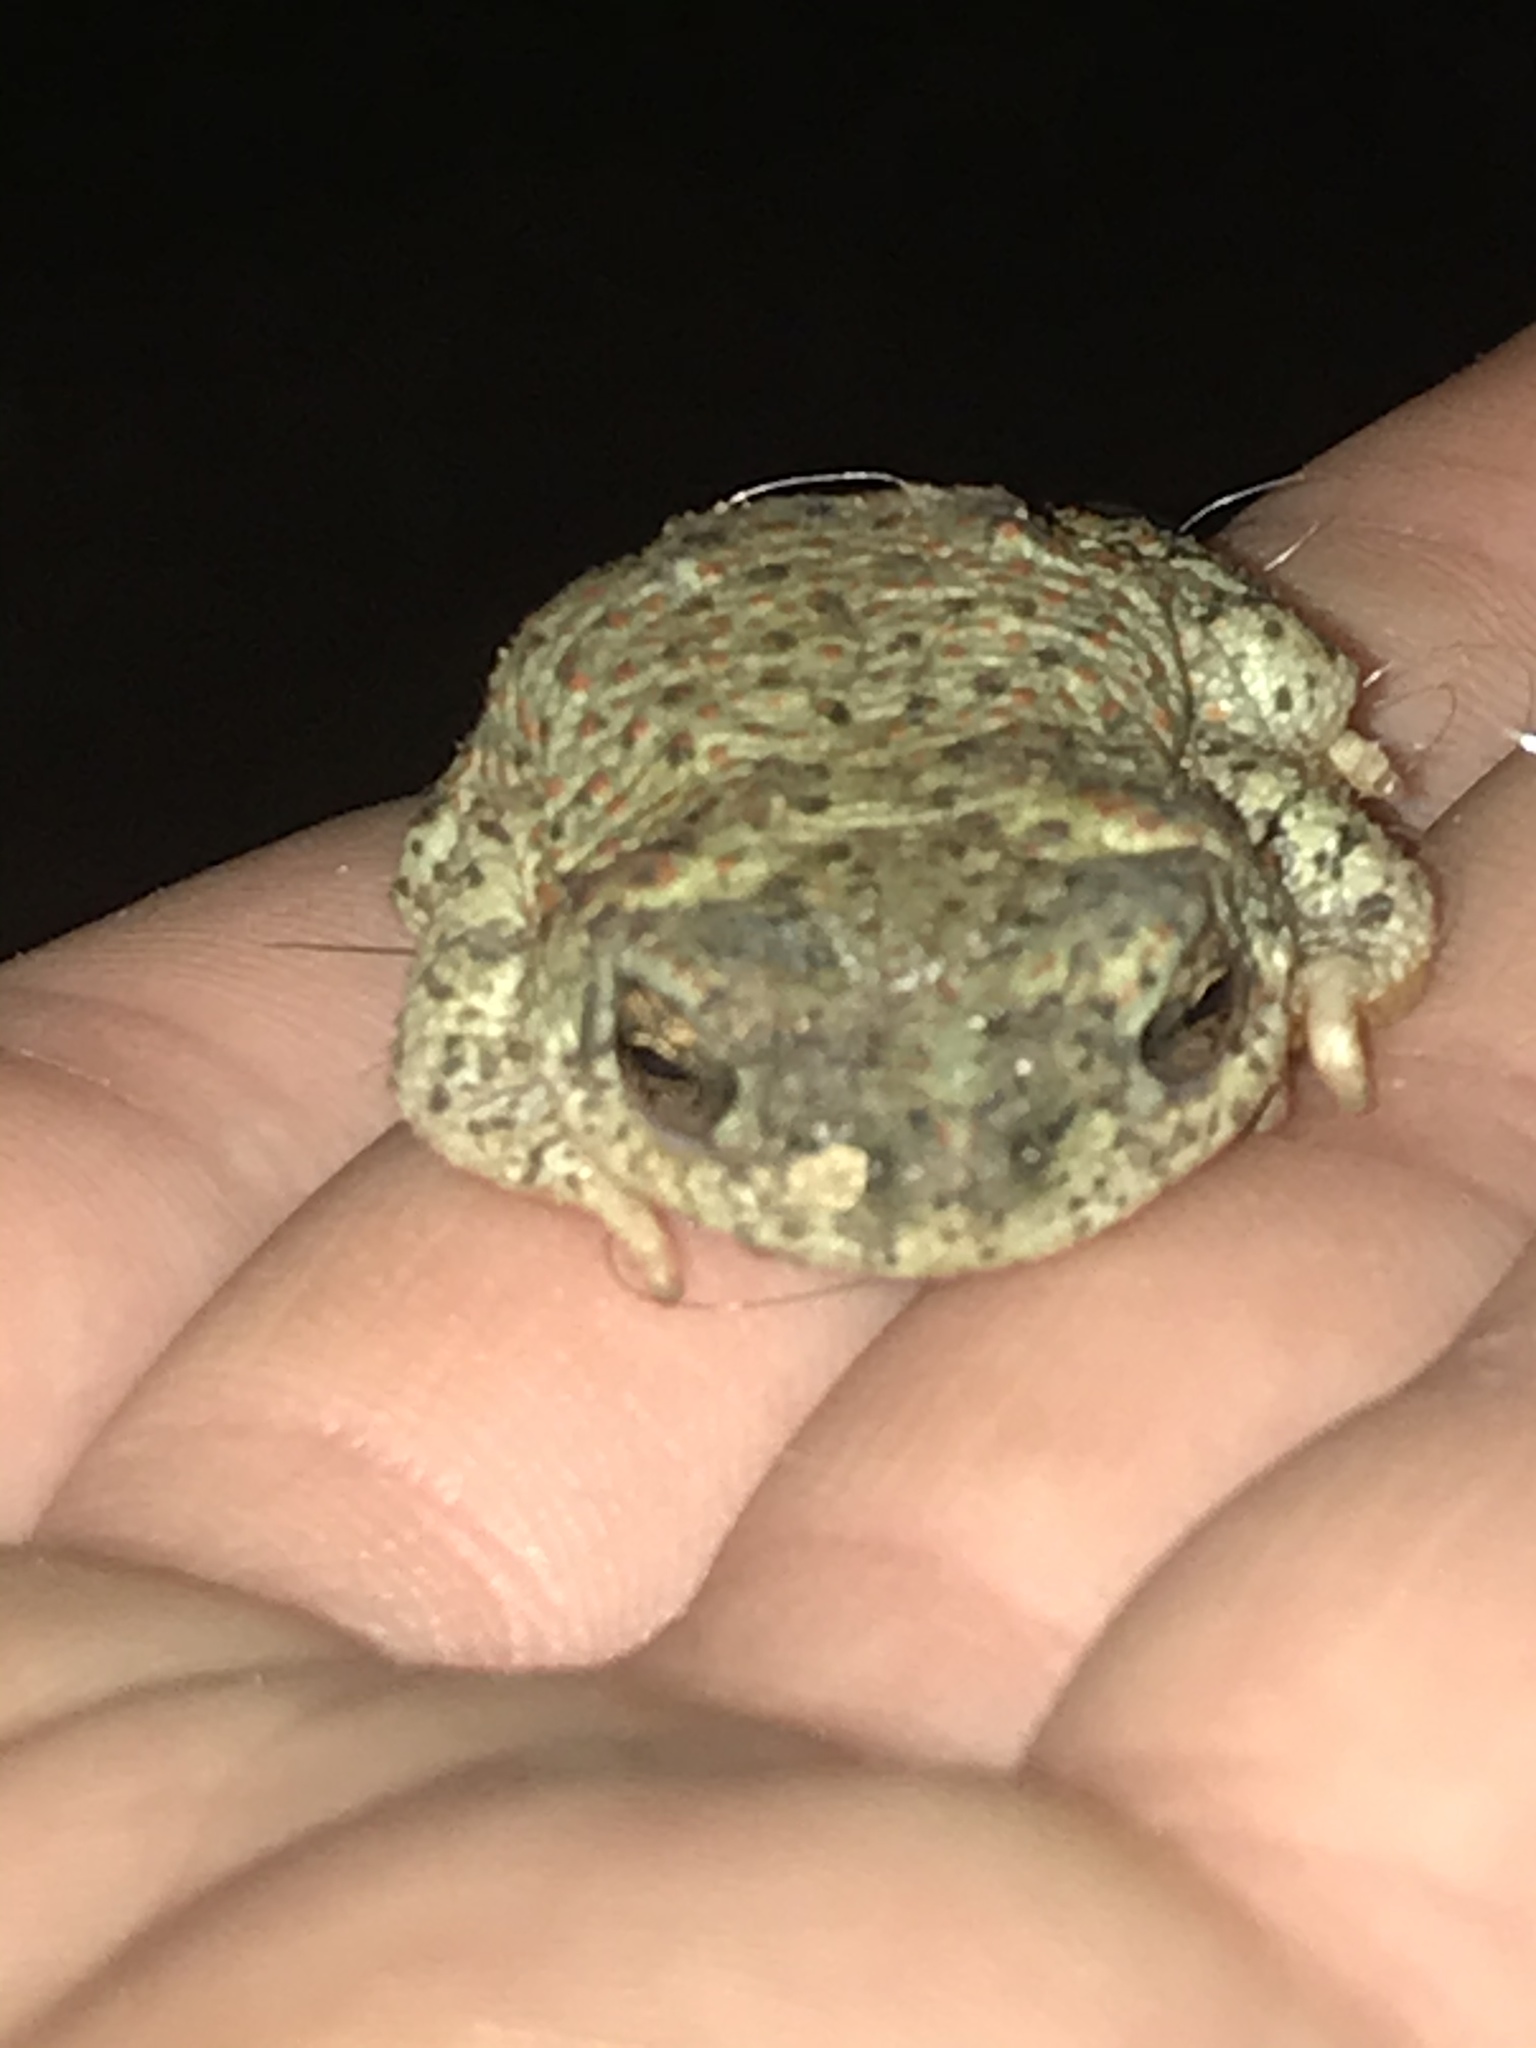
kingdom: Animalia
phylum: Chordata
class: Amphibia
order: Anura
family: Bufonidae
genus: Anaxyrus
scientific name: Anaxyrus punctatus
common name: Red-spotted toad
